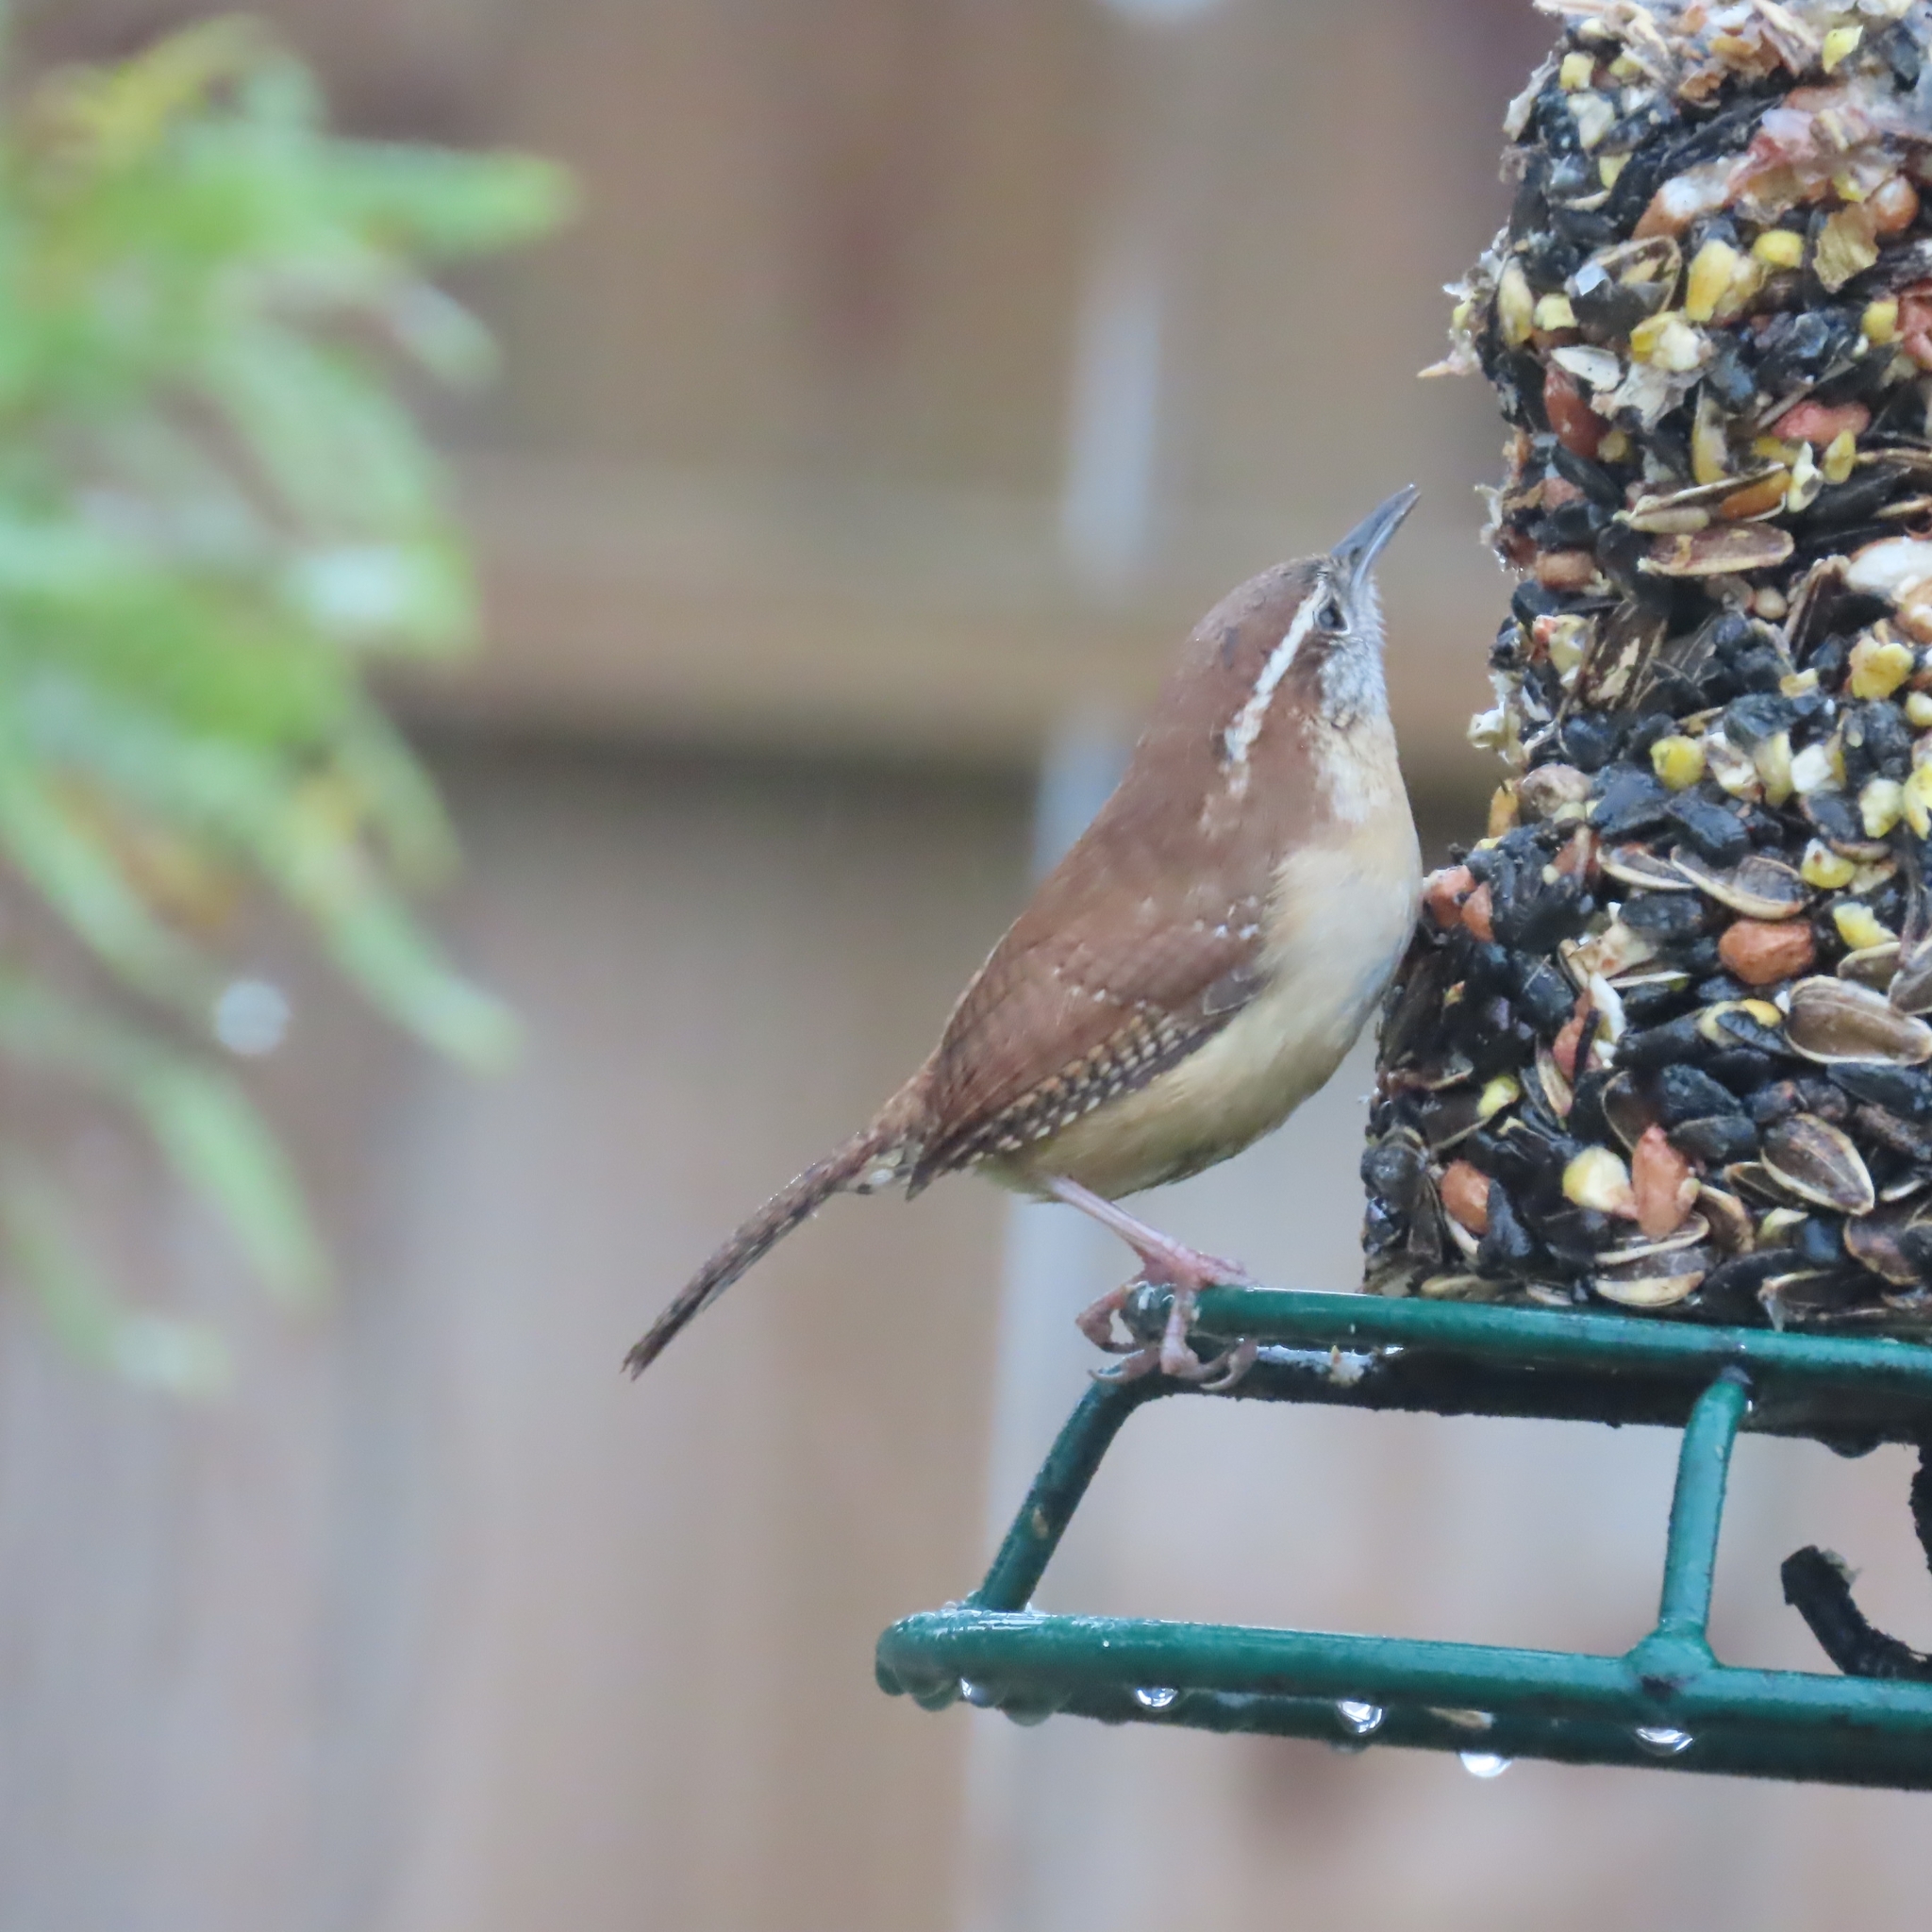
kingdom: Animalia
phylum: Chordata
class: Aves
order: Passeriformes
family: Troglodytidae
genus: Thryothorus
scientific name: Thryothorus ludovicianus
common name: Carolina wren
